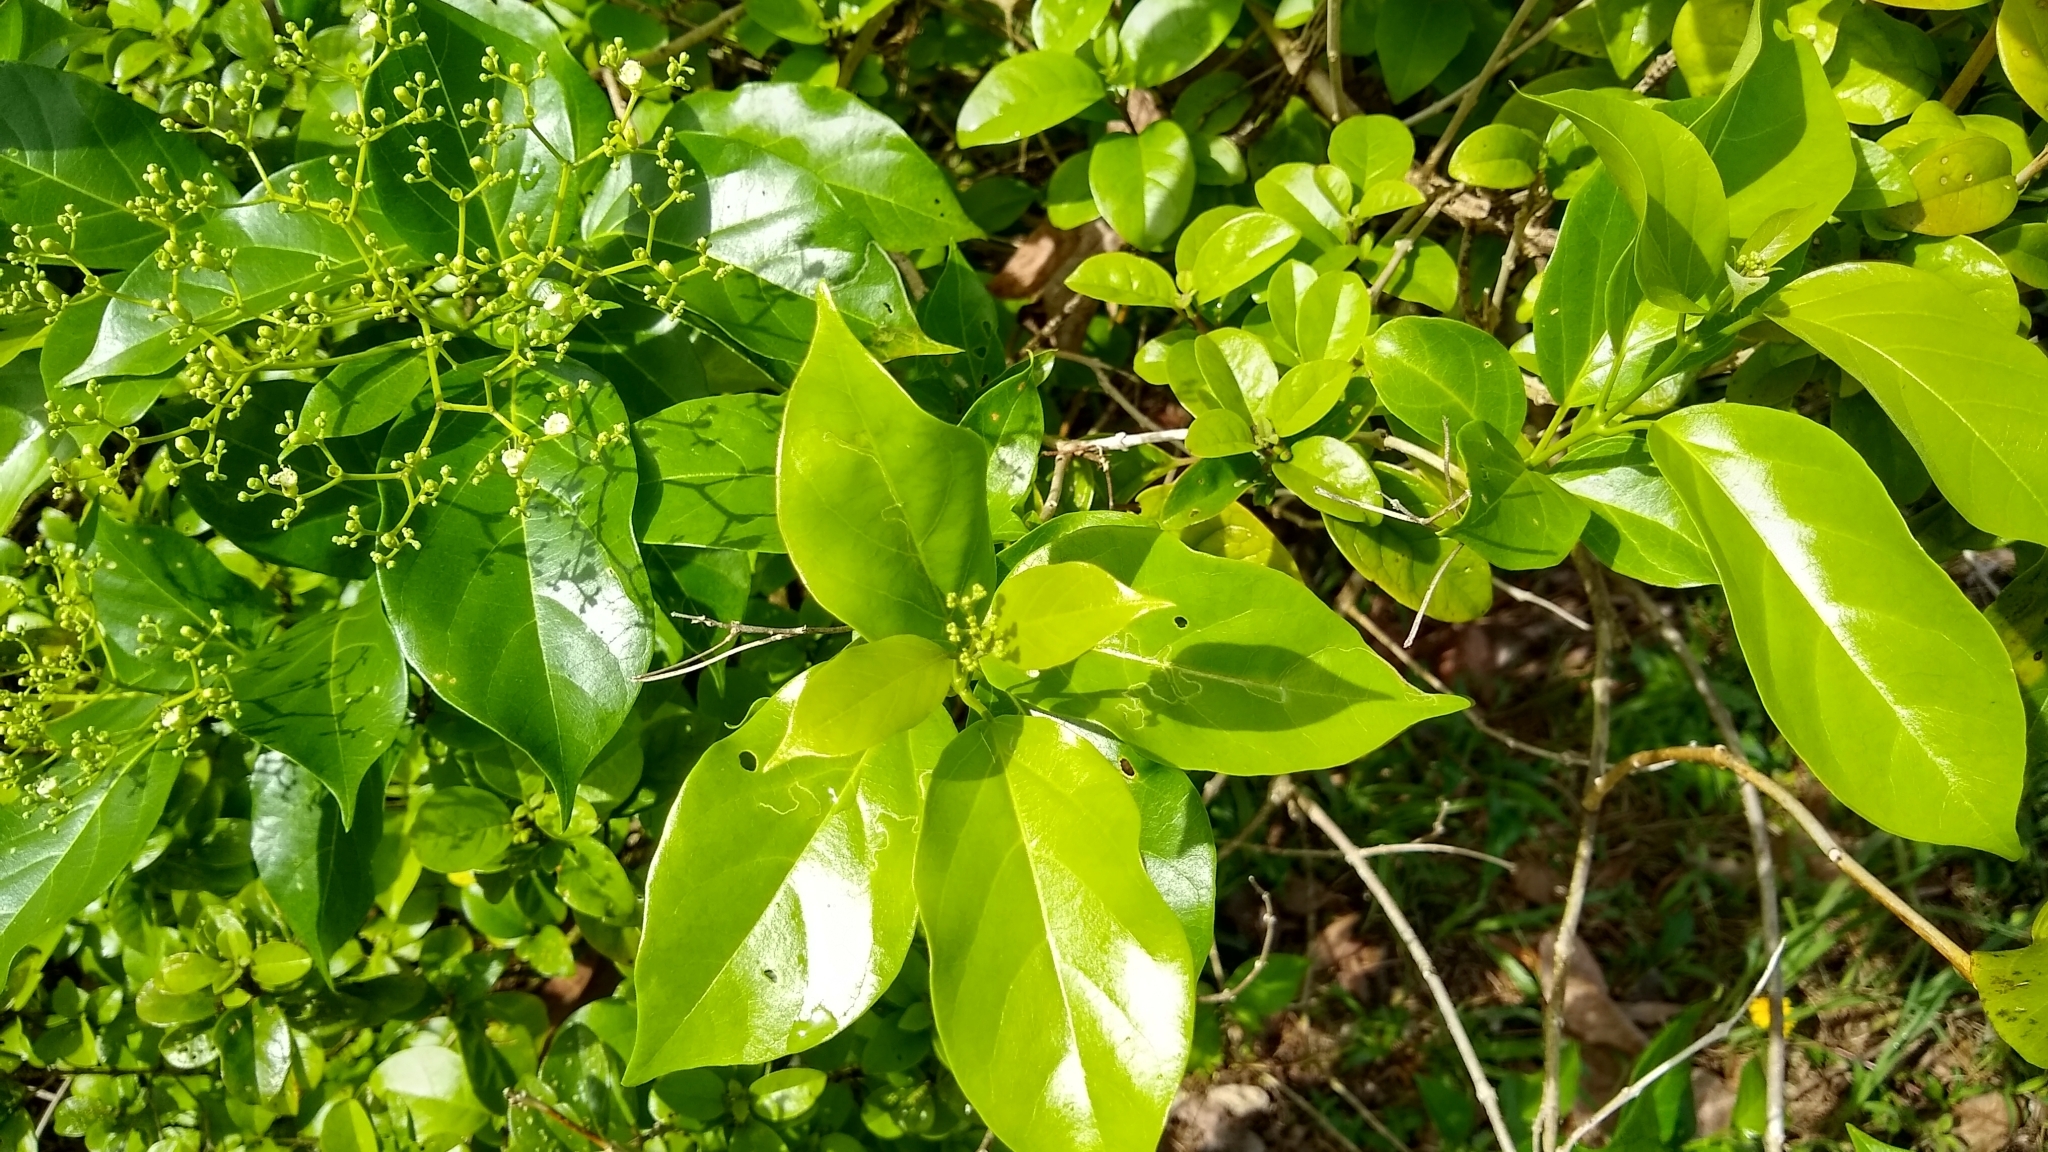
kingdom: Plantae
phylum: Tracheophyta
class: Magnoliopsida
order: Lamiales
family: Lamiaceae
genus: Premna
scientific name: Premna serratifolia
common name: Bastard guelder
